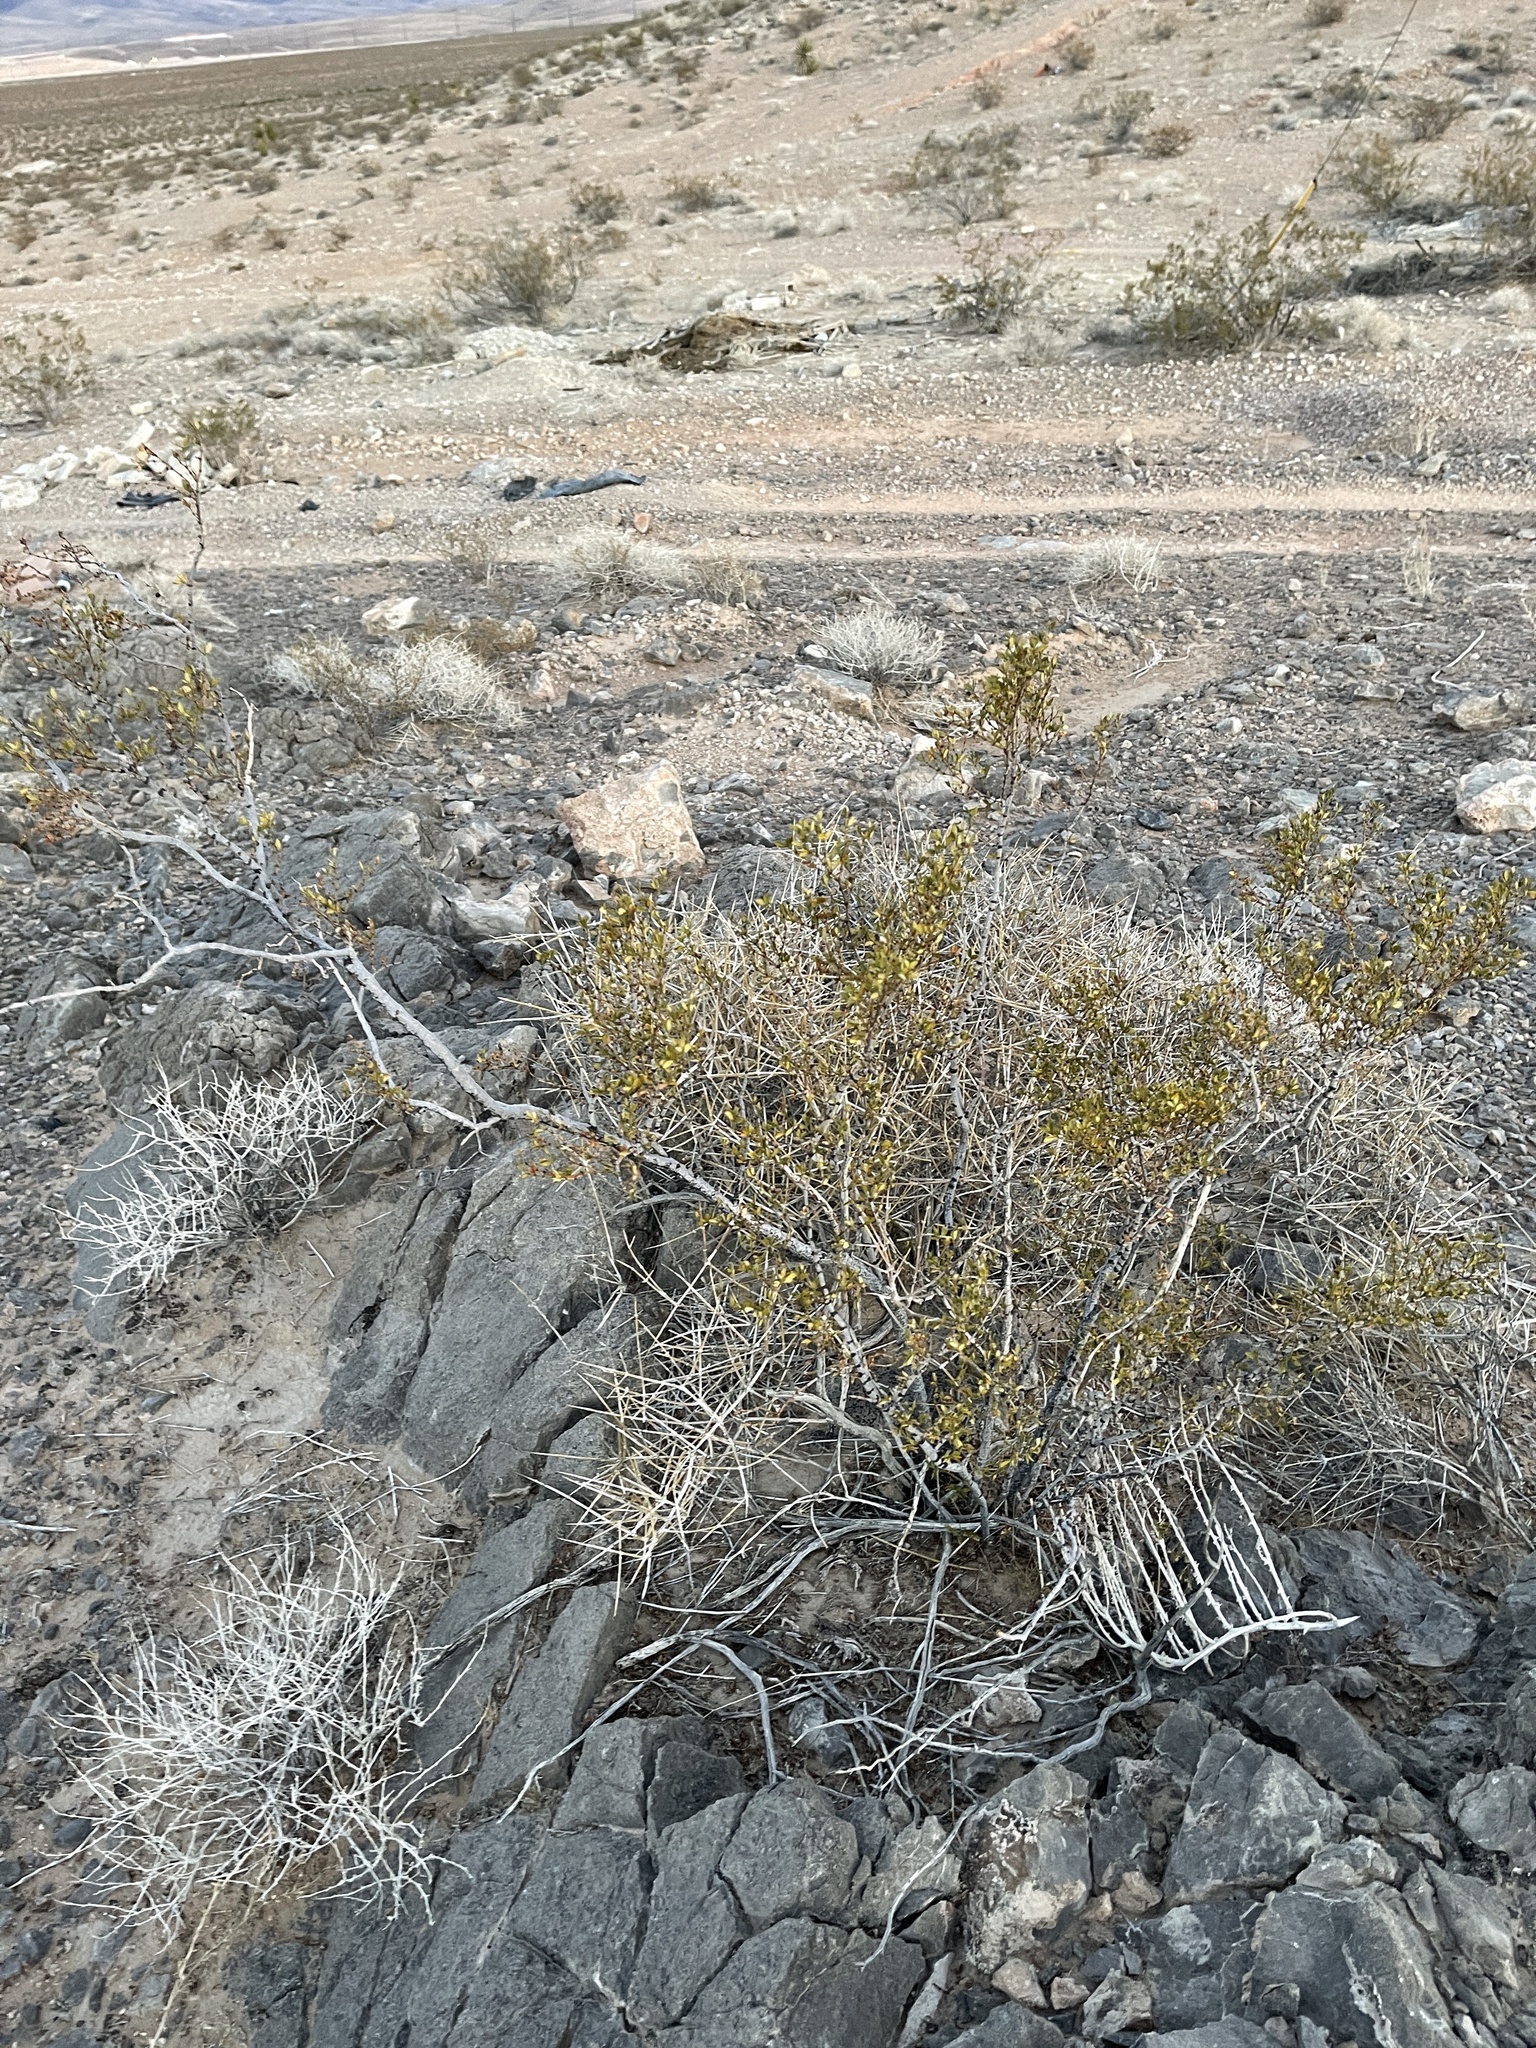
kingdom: Plantae
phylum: Tracheophyta
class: Magnoliopsida
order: Zygophyllales
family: Zygophyllaceae
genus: Larrea
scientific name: Larrea tridentata
